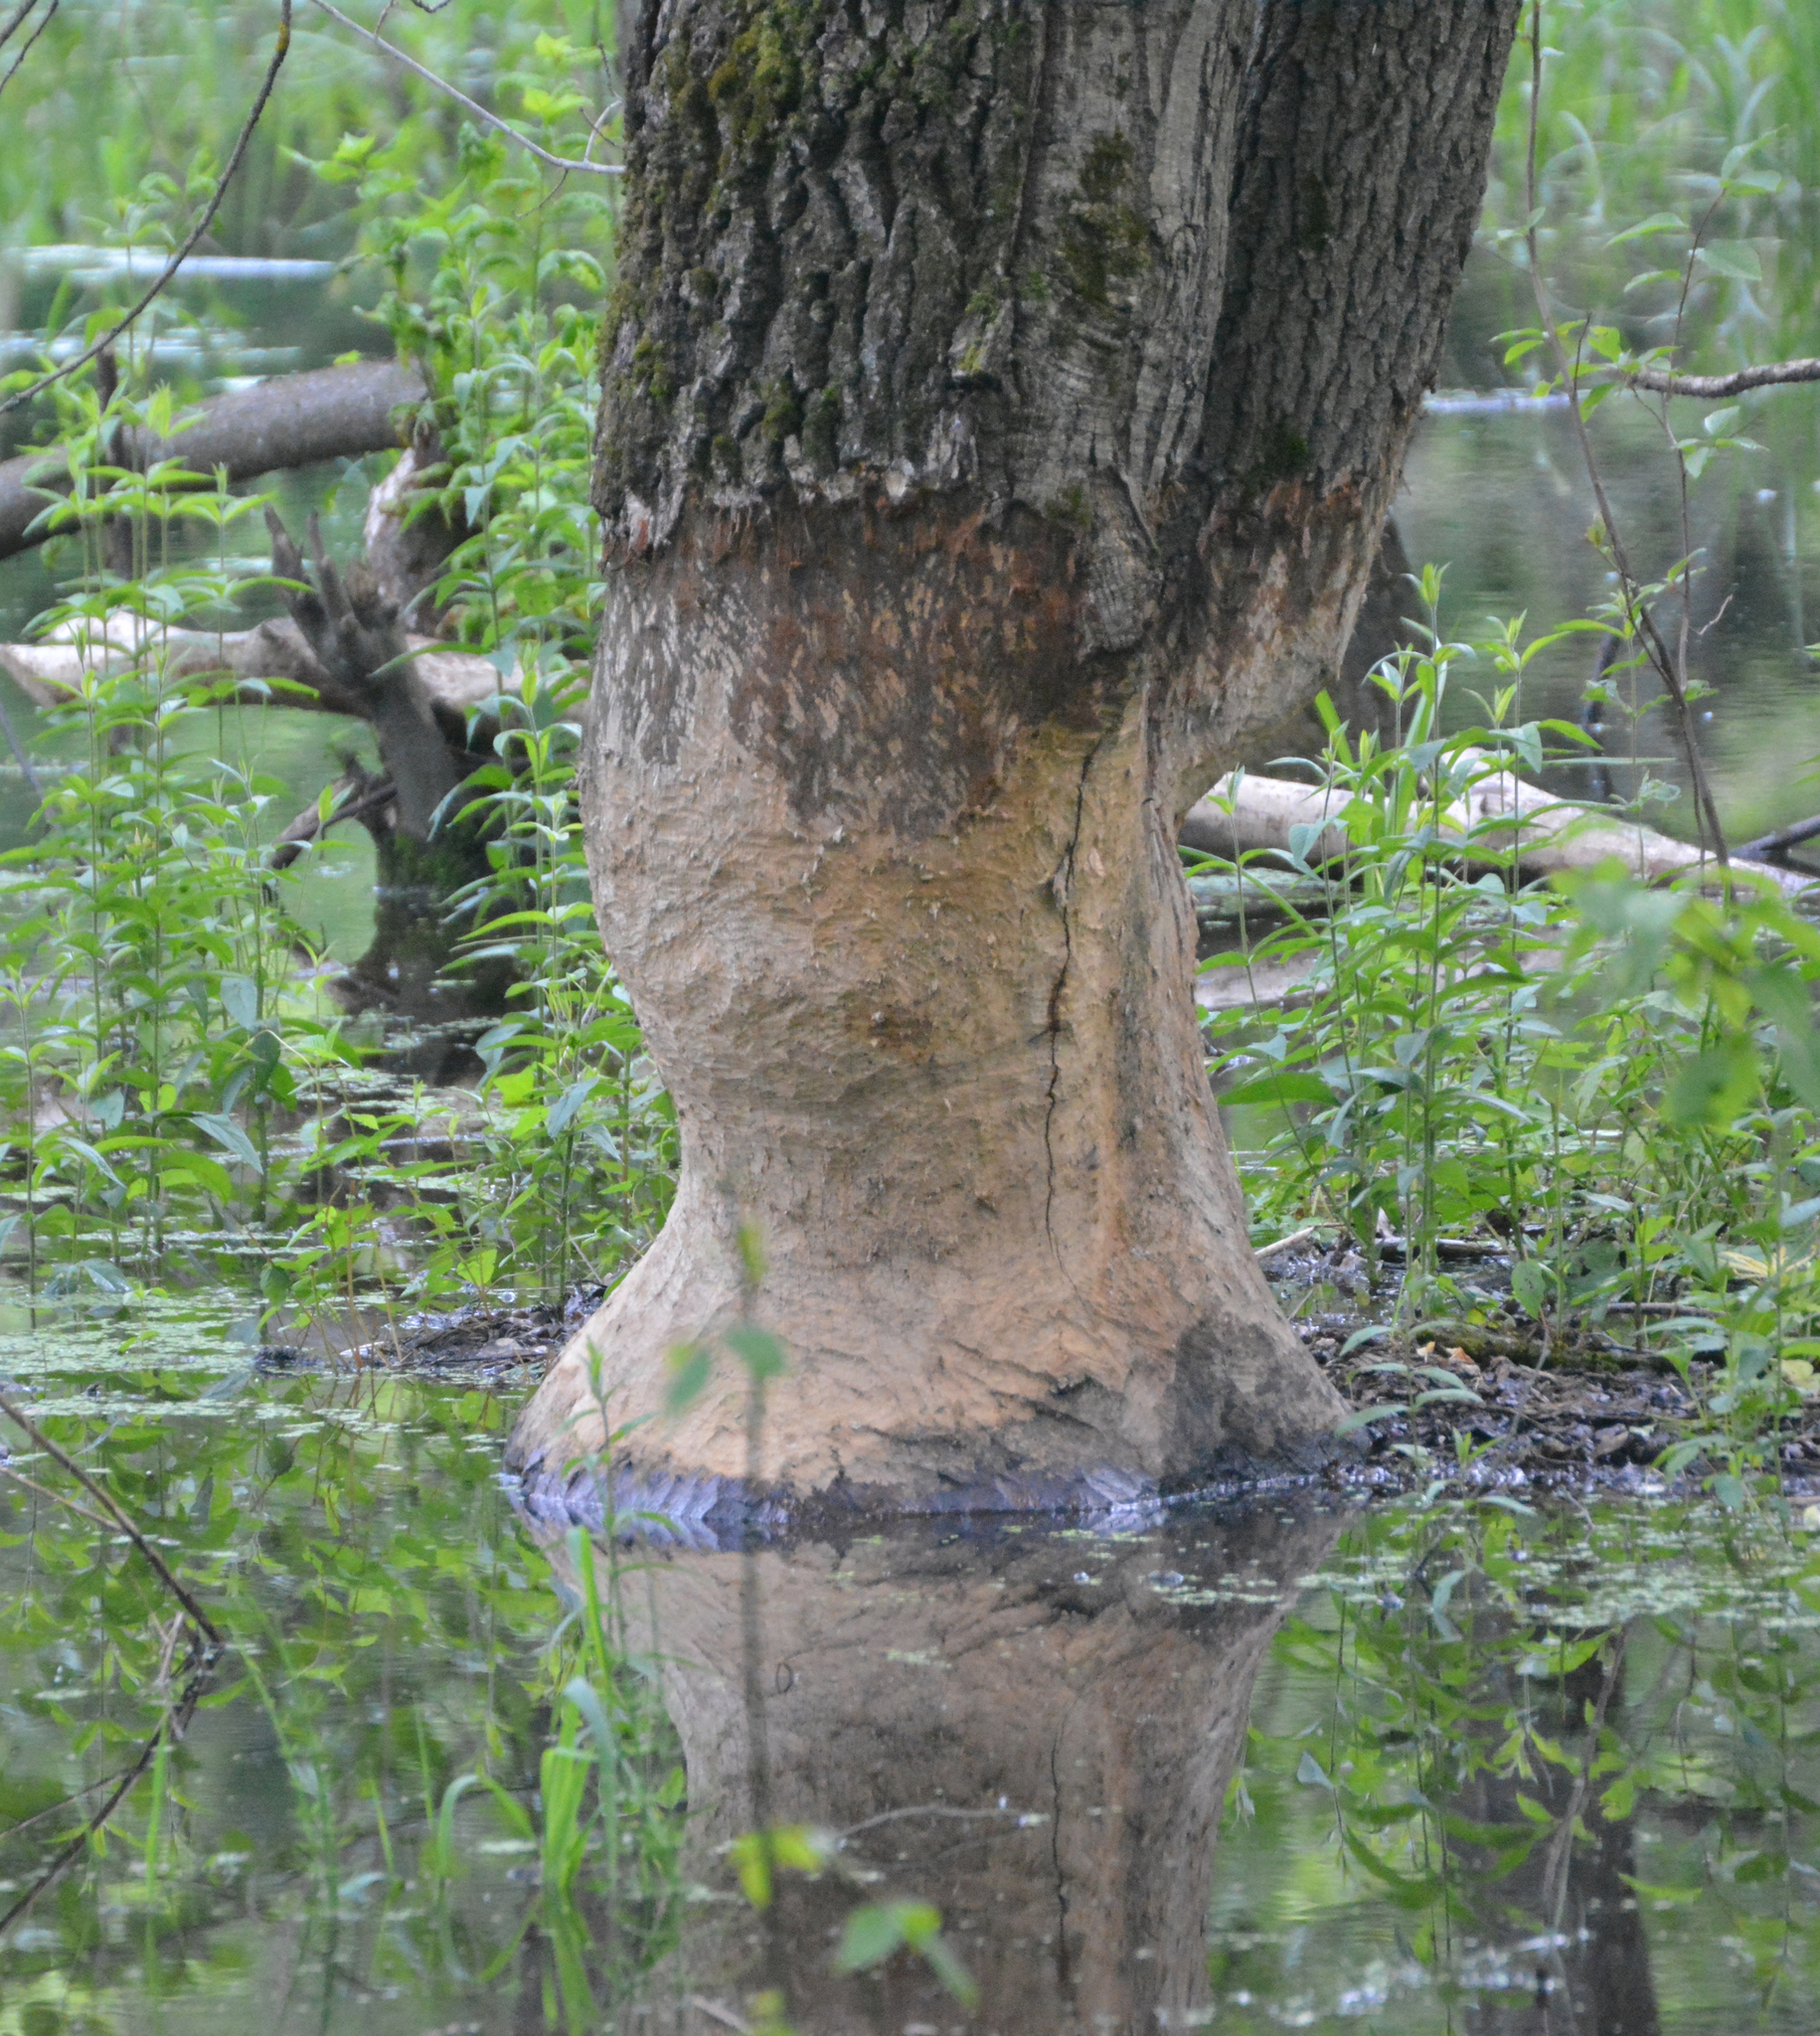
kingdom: Animalia
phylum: Chordata
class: Mammalia
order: Rodentia
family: Castoridae
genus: Castor
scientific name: Castor fiber
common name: Eurasian beaver
